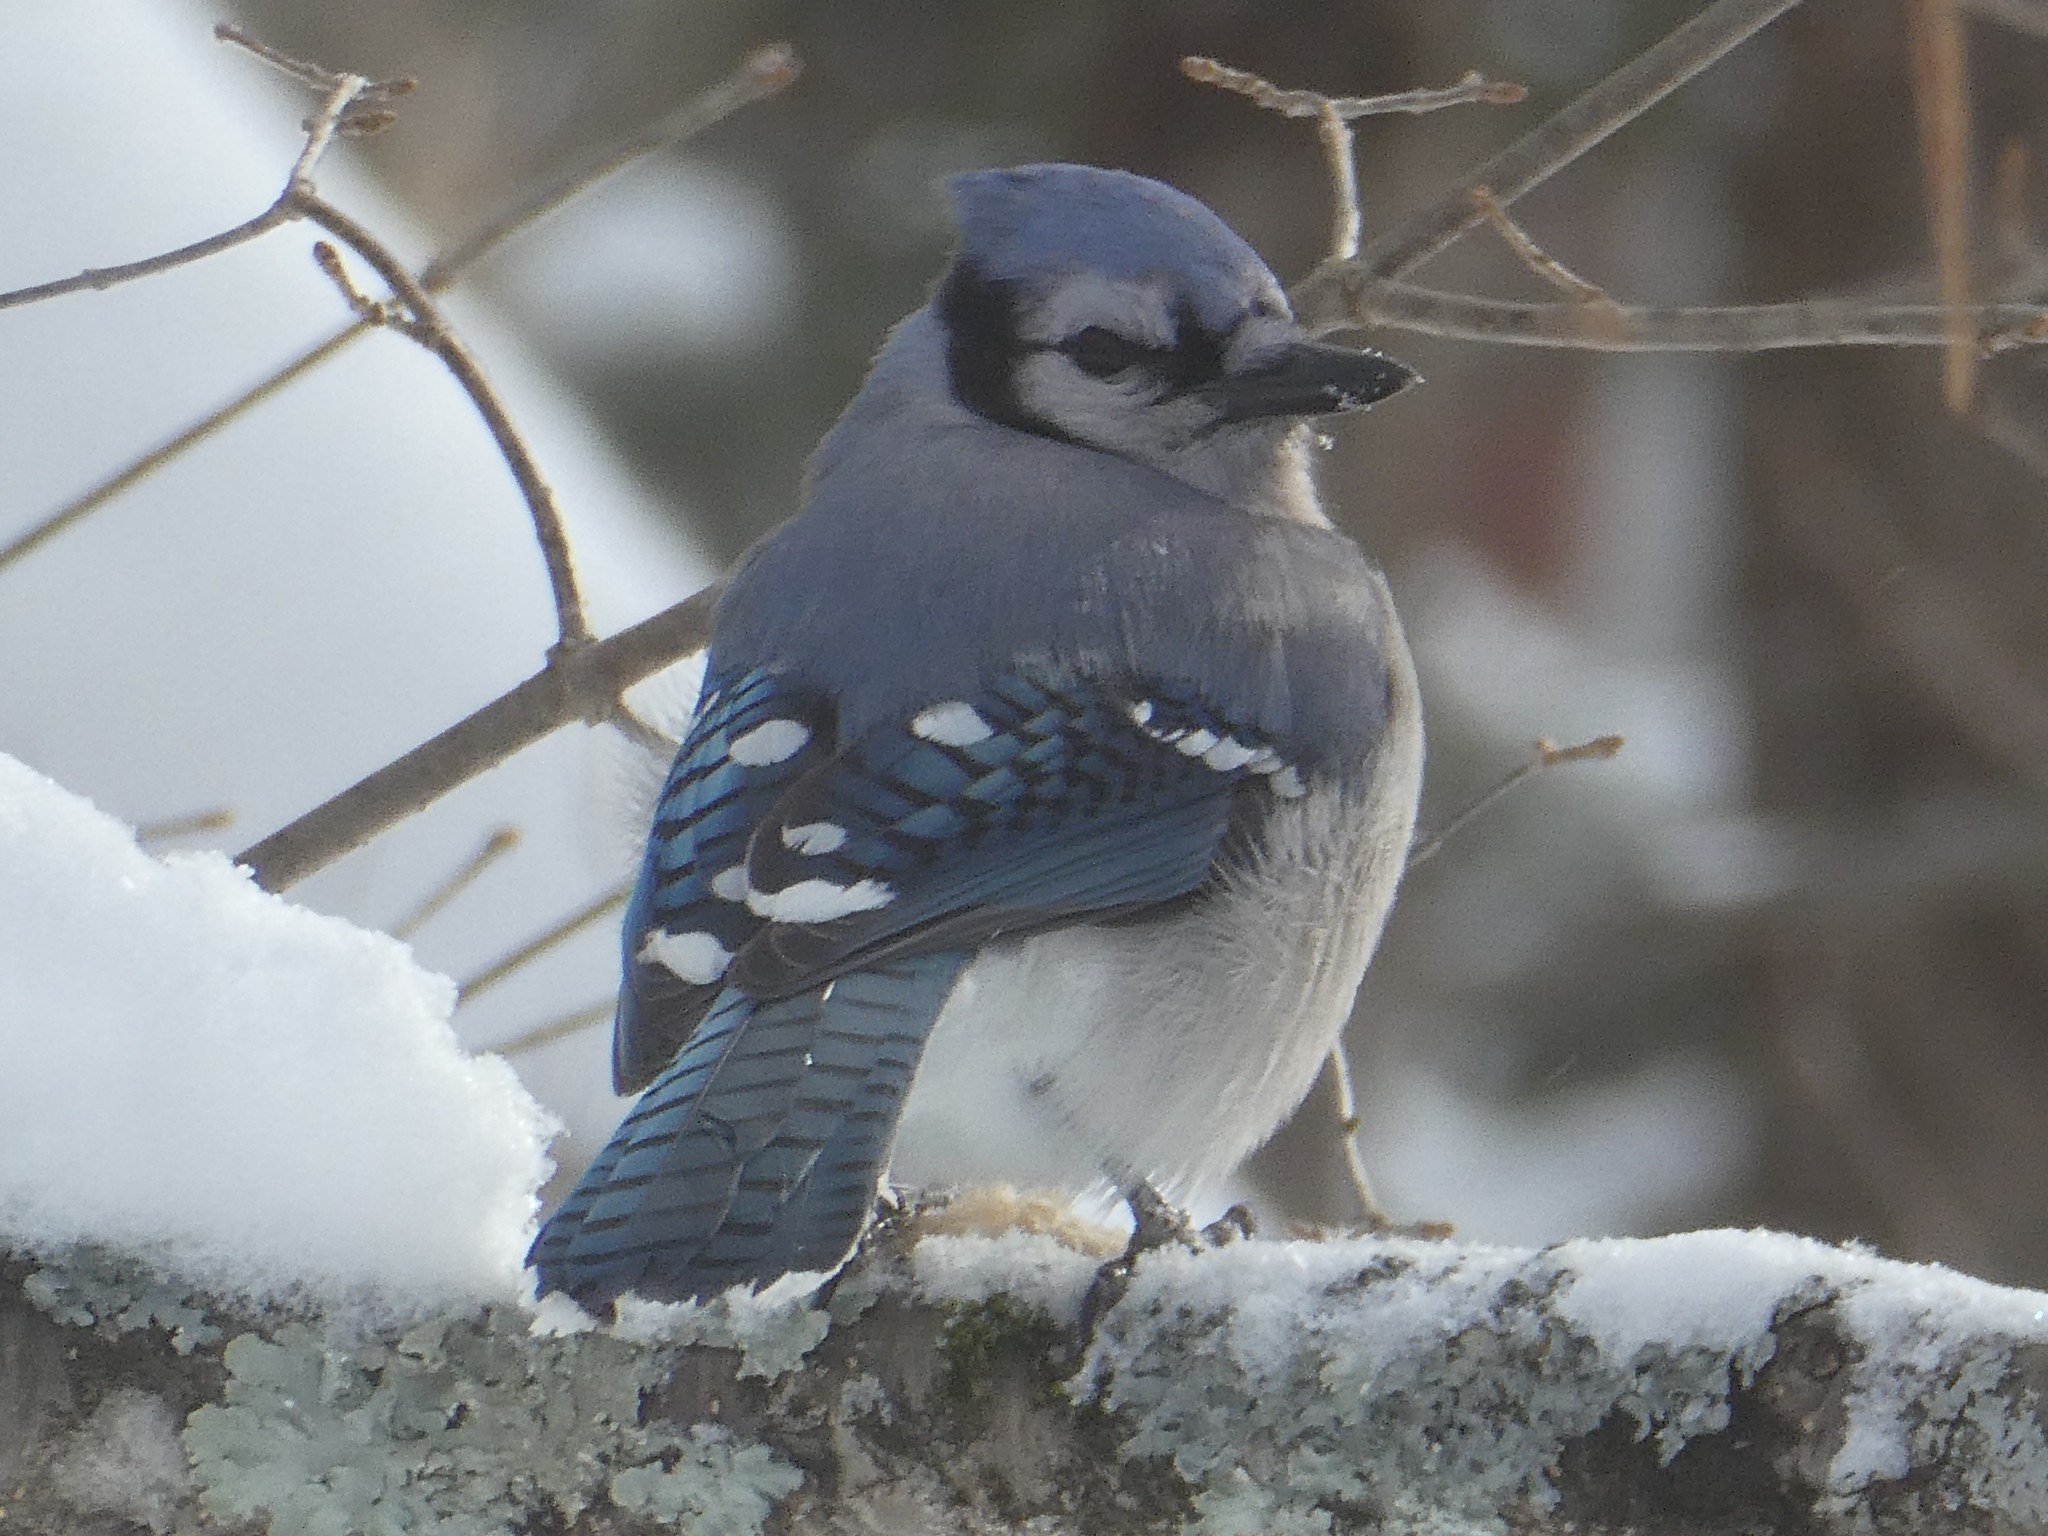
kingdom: Animalia
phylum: Chordata
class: Aves
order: Passeriformes
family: Corvidae
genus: Cyanocitta
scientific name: Cyanocitta cristata
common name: Blue jay
